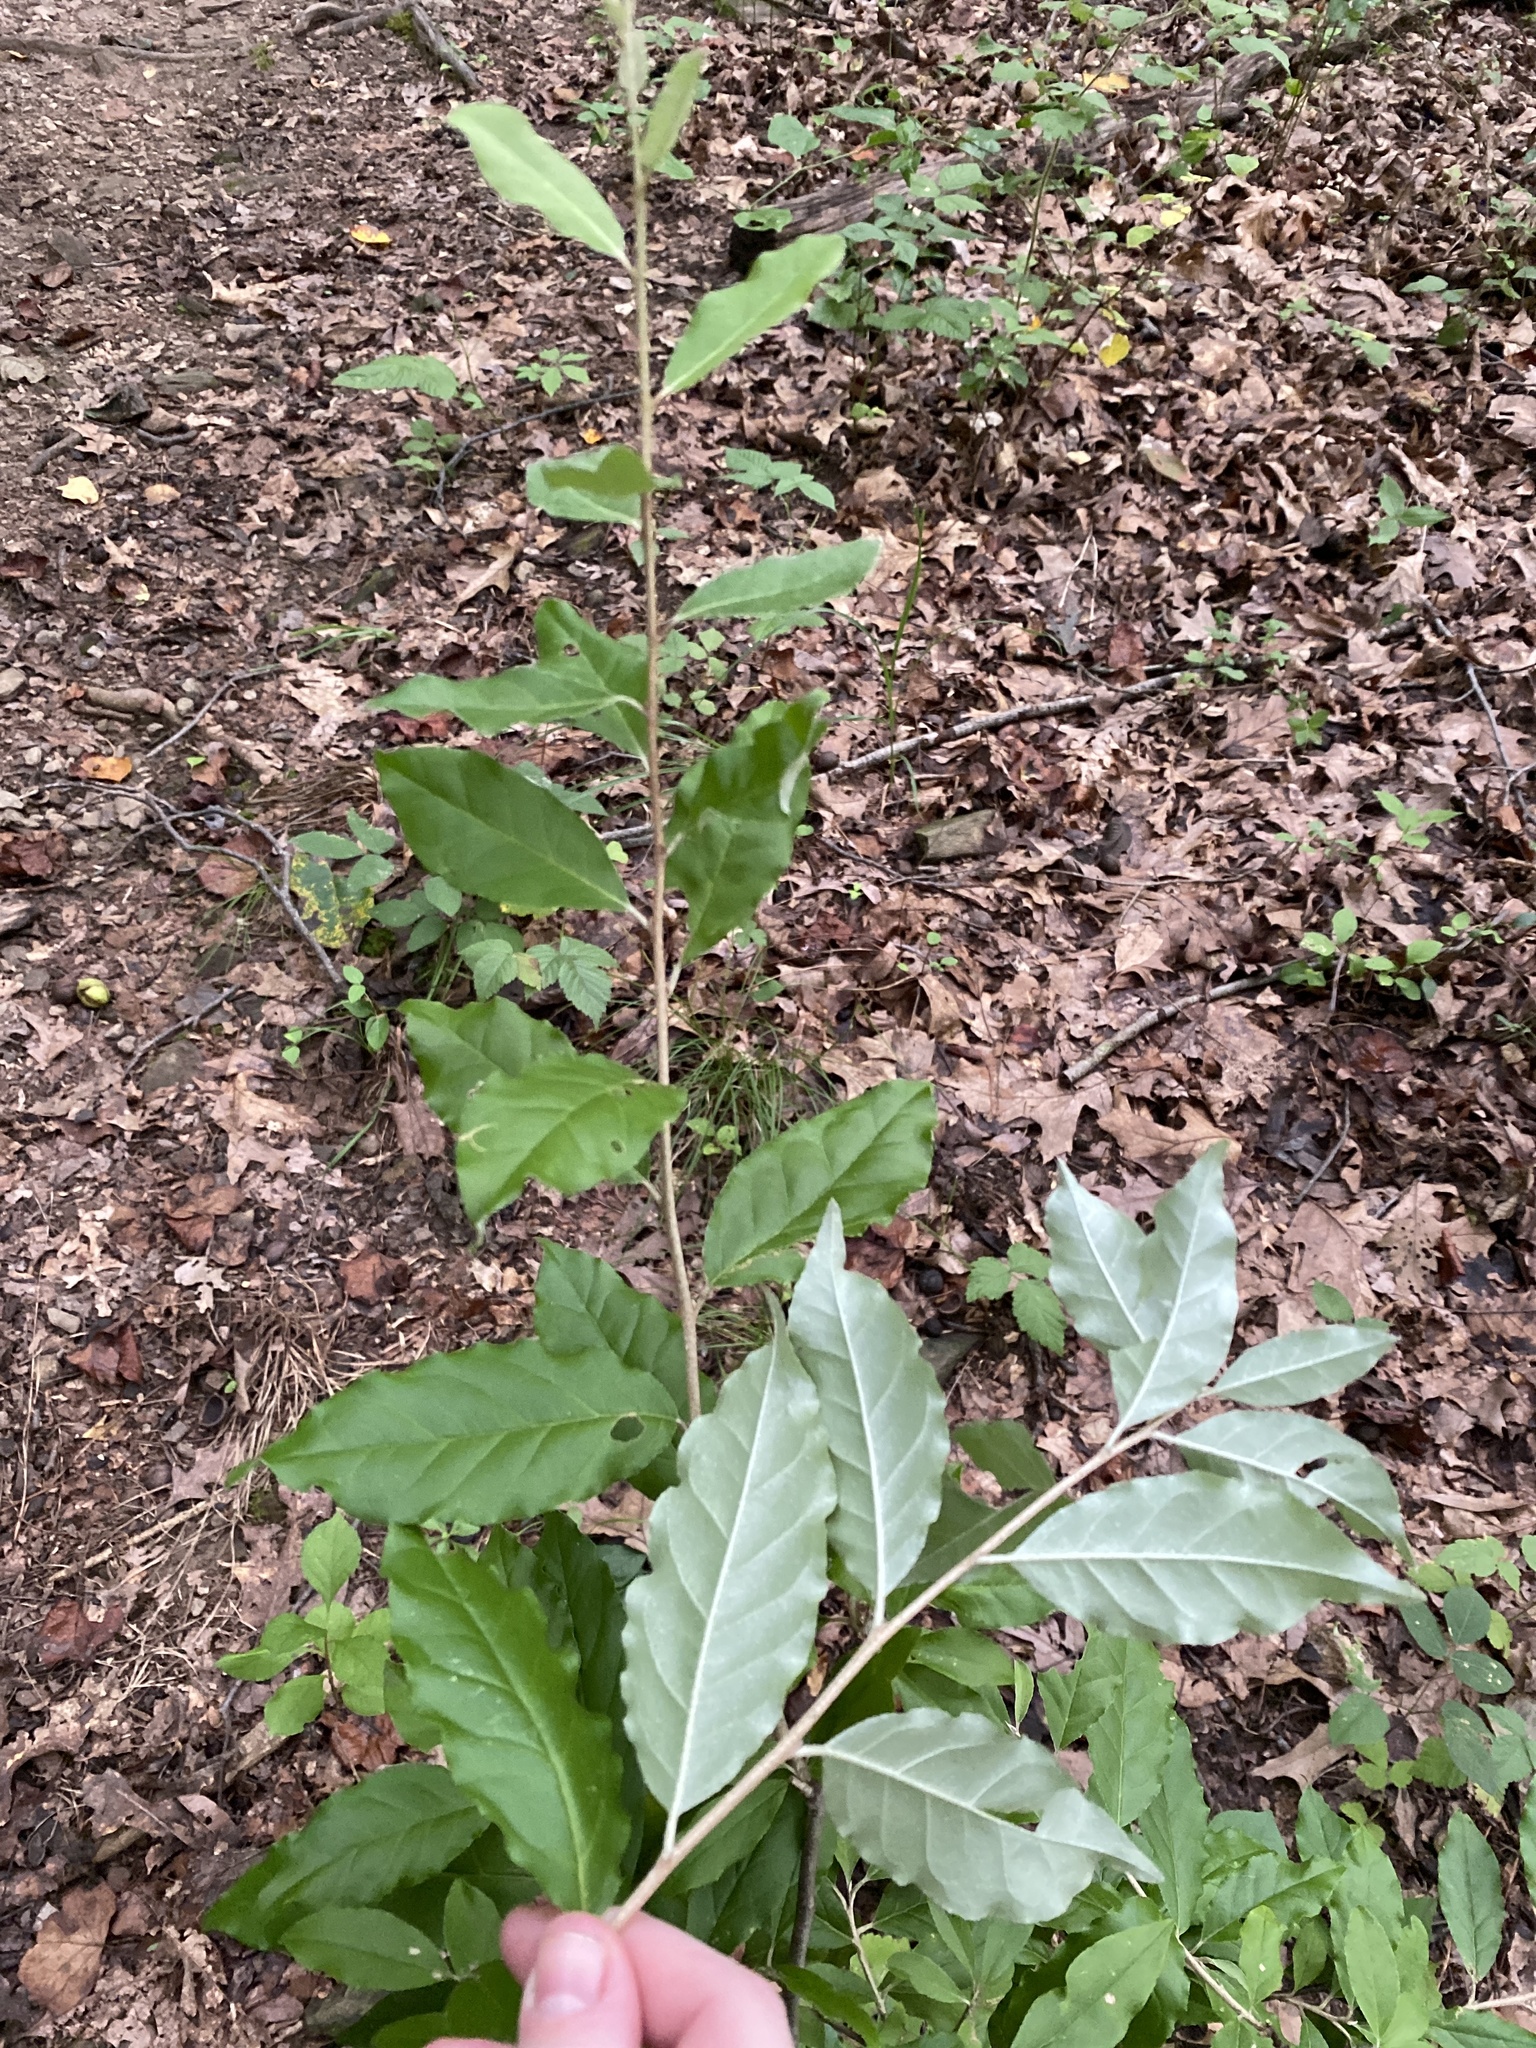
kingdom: Plantae
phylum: Tracheophyta
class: Magnoliopsida
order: Rosales
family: Elaeagnaceae
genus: Elaeagnus
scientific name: Elaeagnus umbellata
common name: Autumn olive
